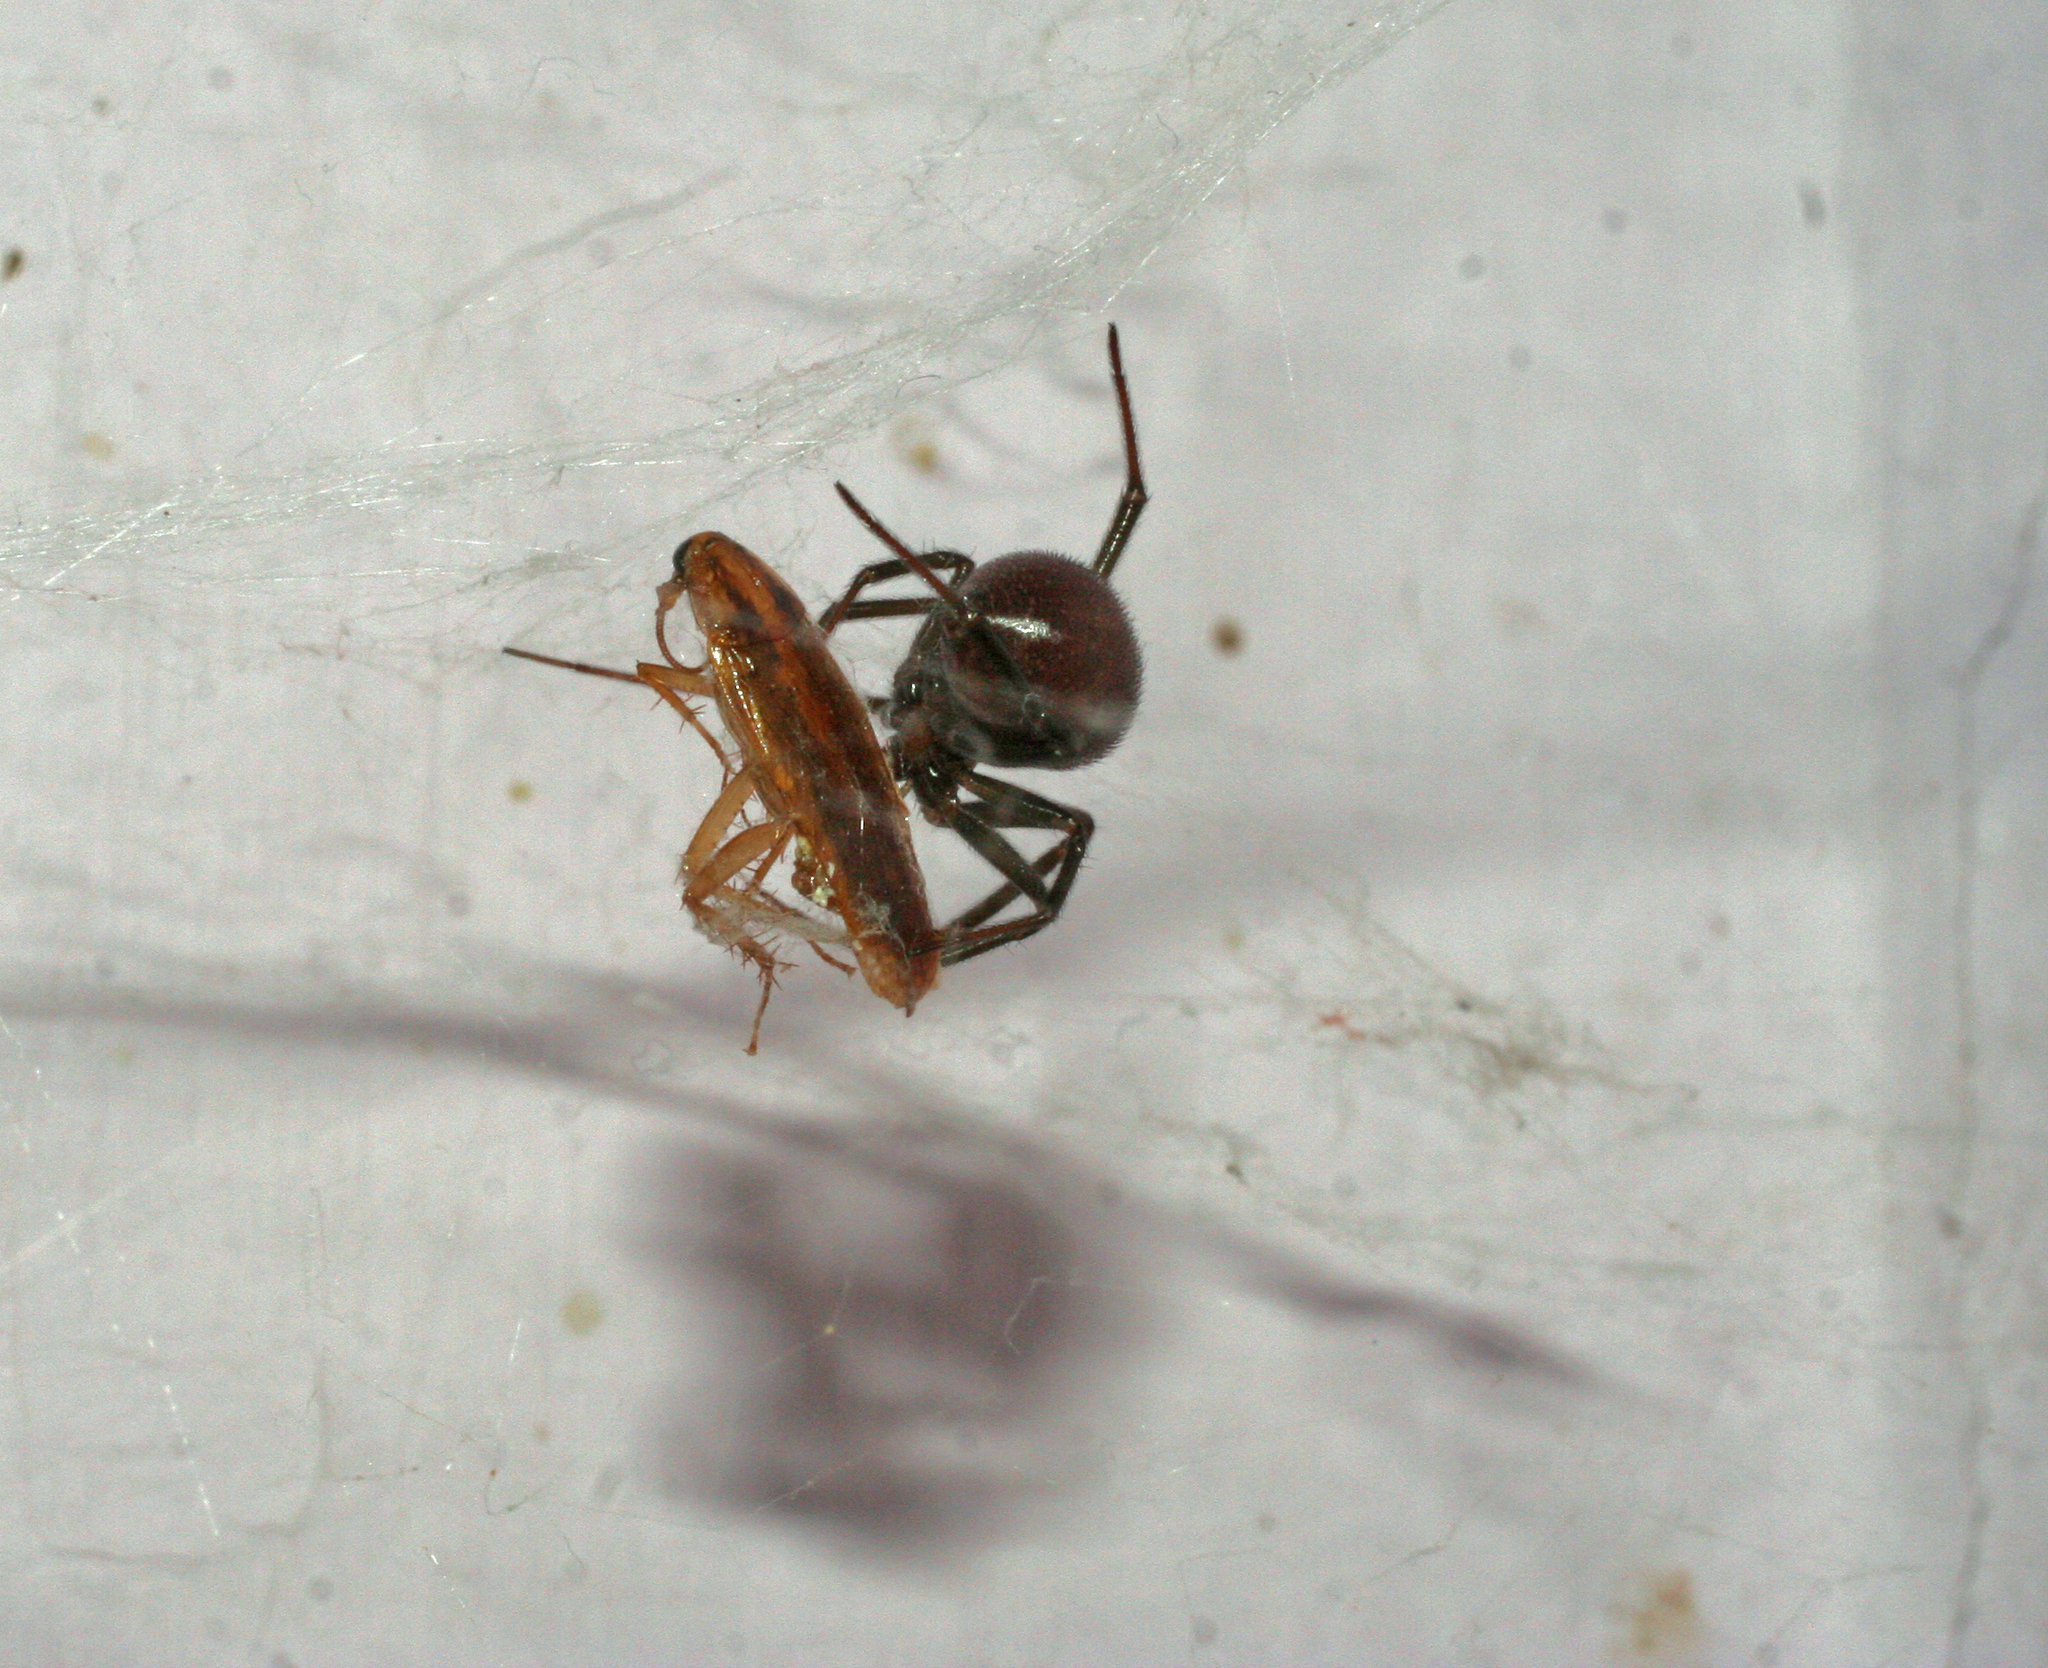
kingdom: Animalia
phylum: Arthropoda
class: Insecta
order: Blattodea
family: Ectobiidae
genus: Blattella
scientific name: Blattella germanica
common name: German cockroach
